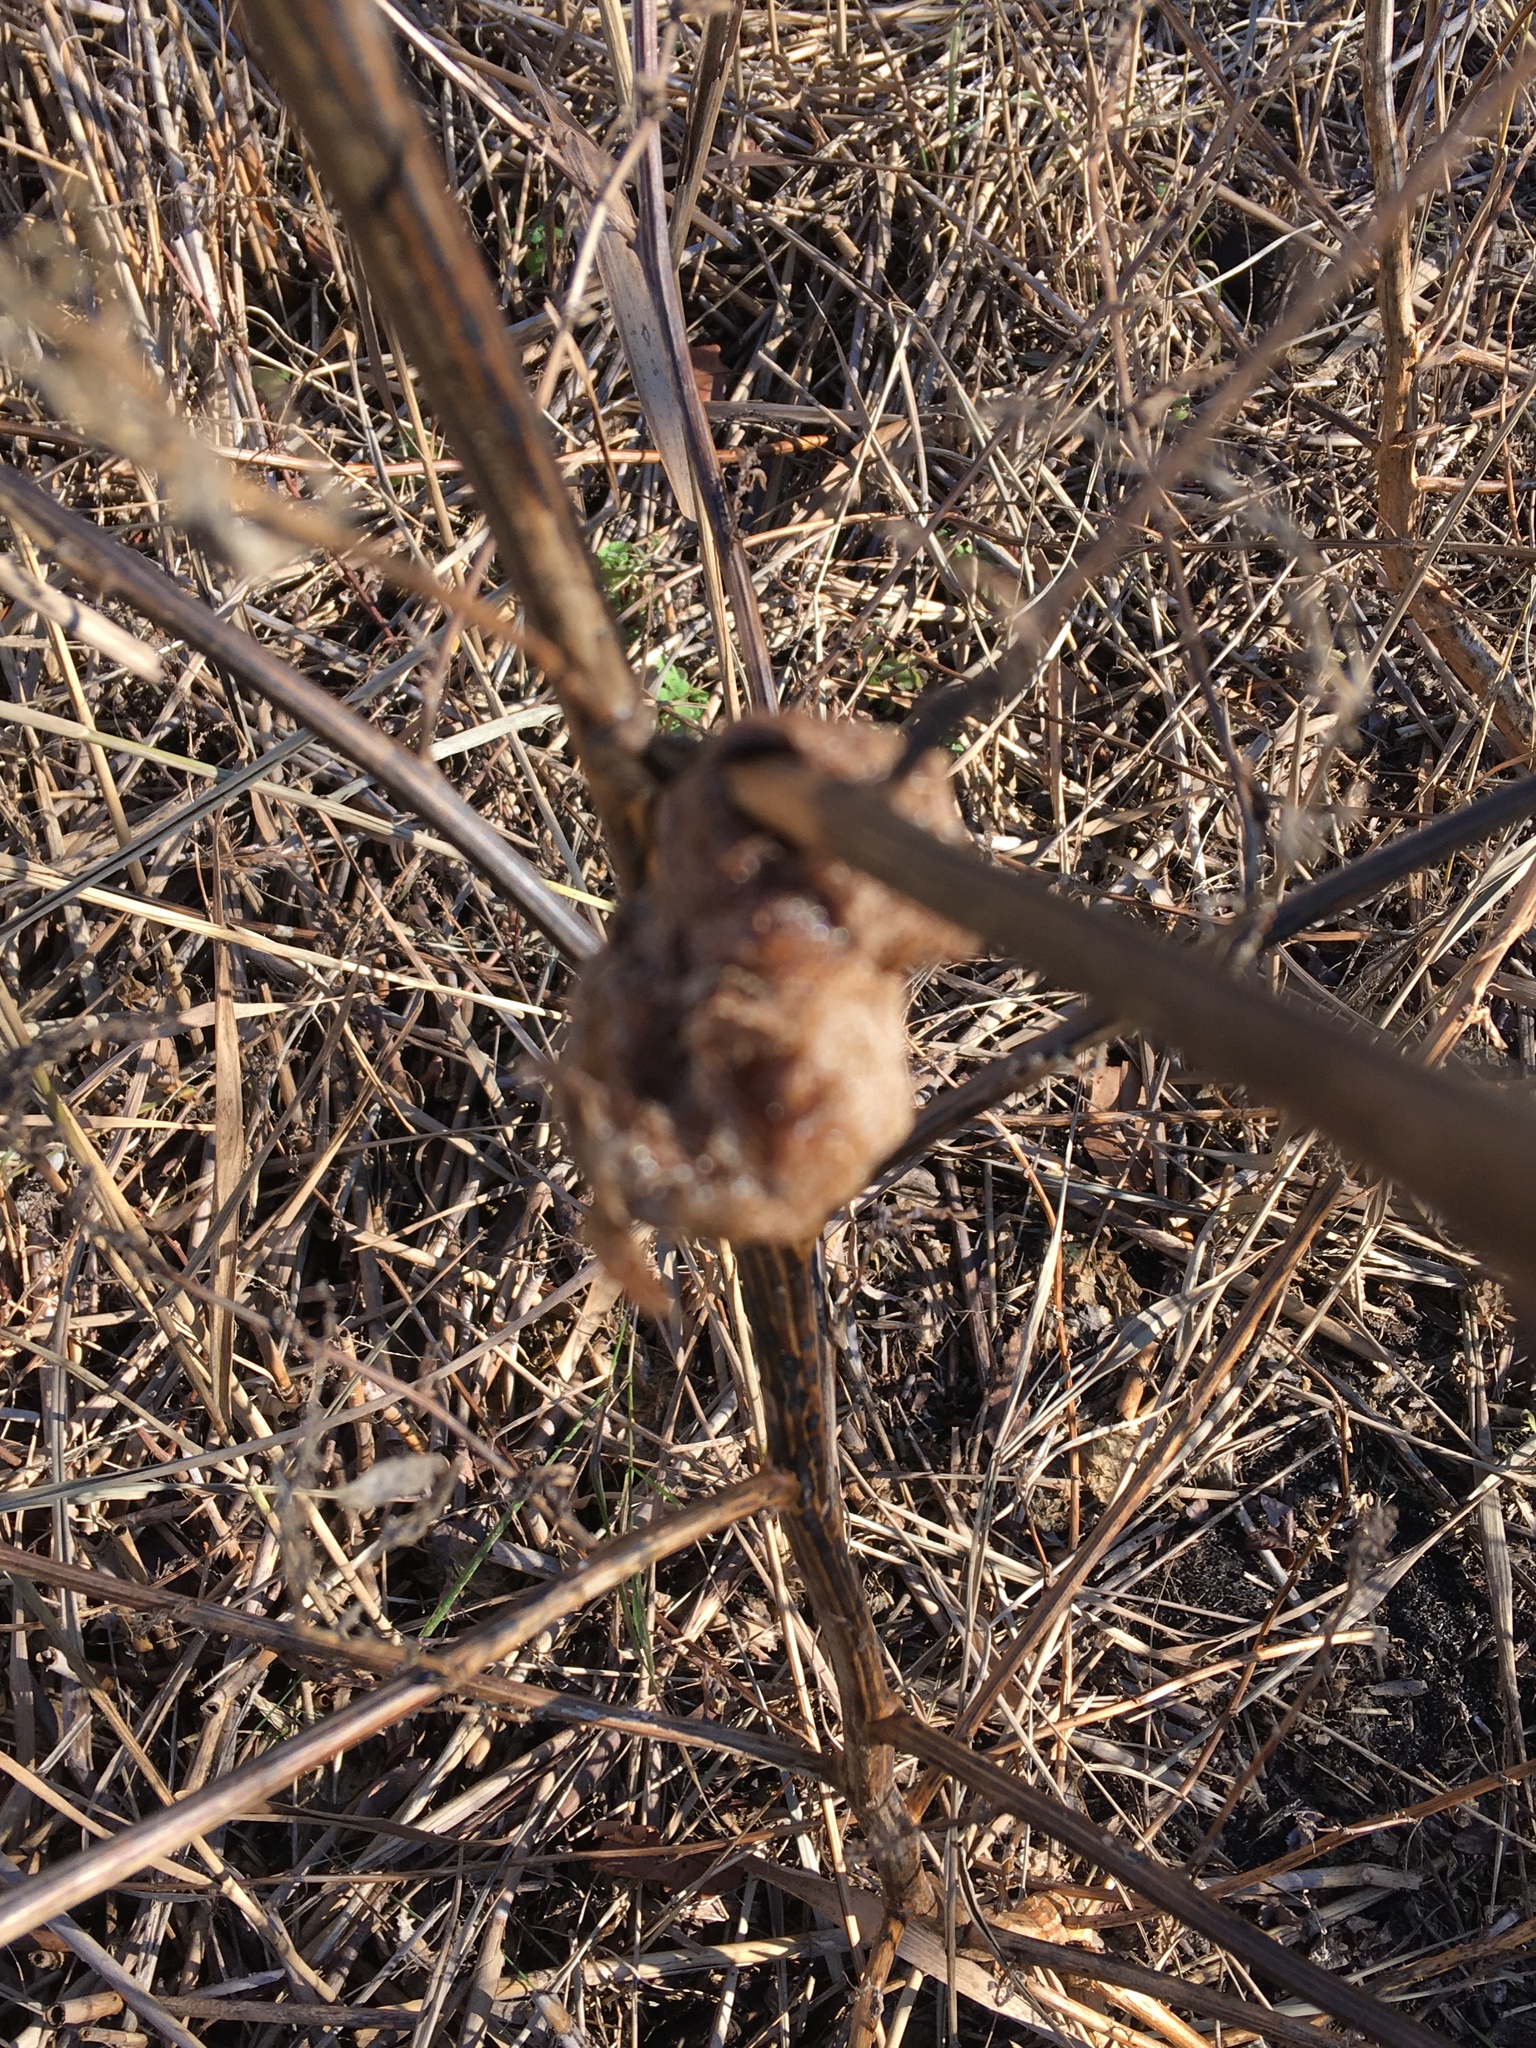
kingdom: Plantae
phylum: Tracheophyta
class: Magnoliopsida
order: Caryophyllales
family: Amaranthaceae
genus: Chenopodium
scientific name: Chenopodium album
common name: Fat-hen
